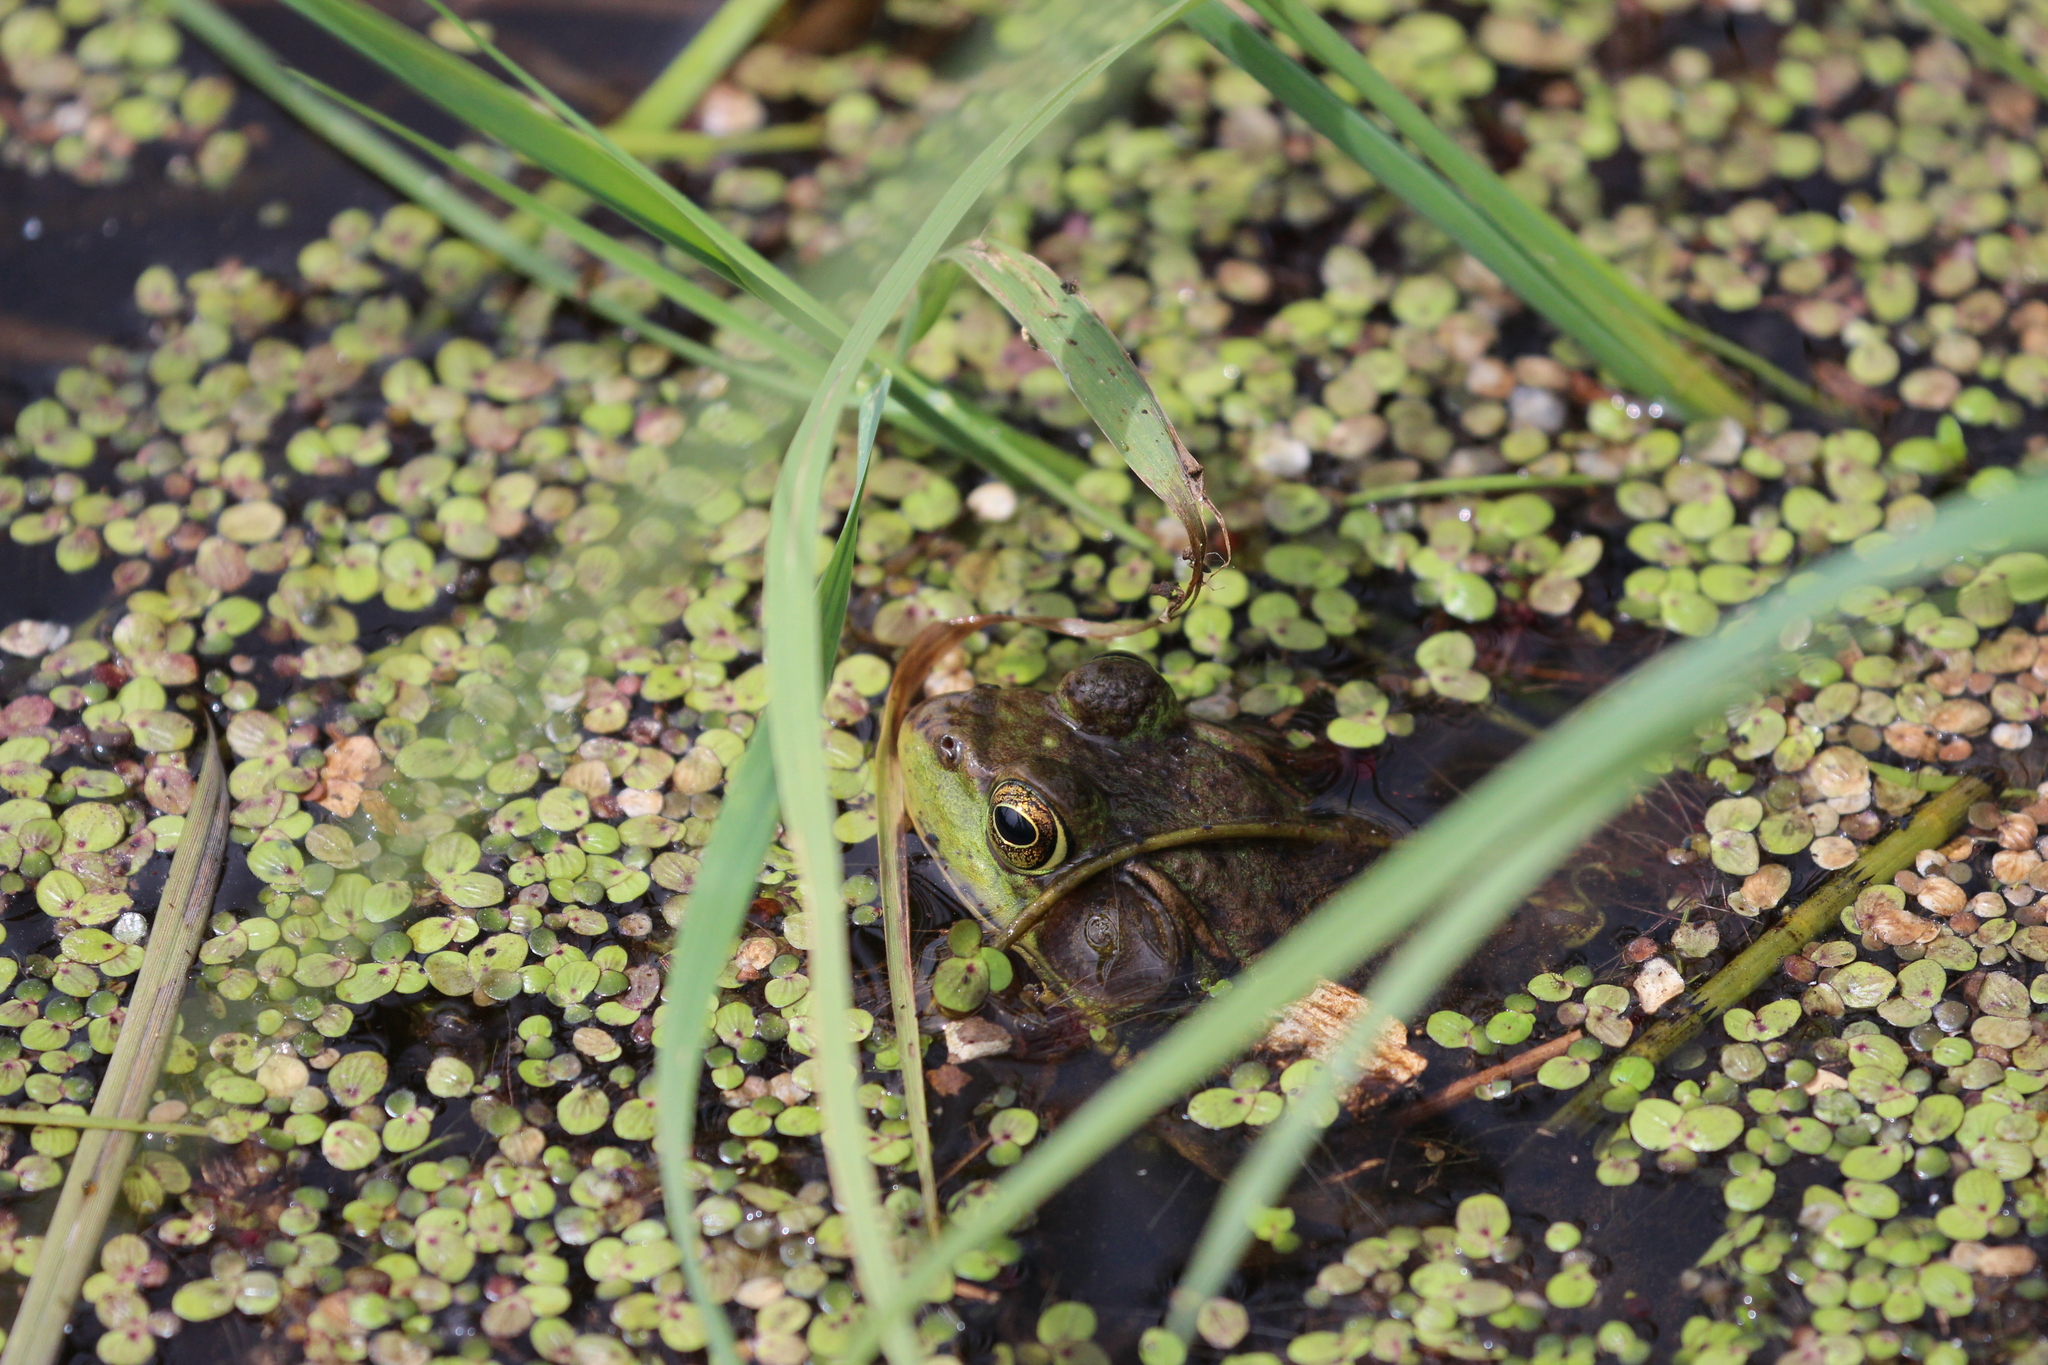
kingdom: Animalia
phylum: Chordata
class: Amphibia
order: Anura
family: Ranidae
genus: Lithobates
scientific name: Lithobates clamitans
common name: Green frog
